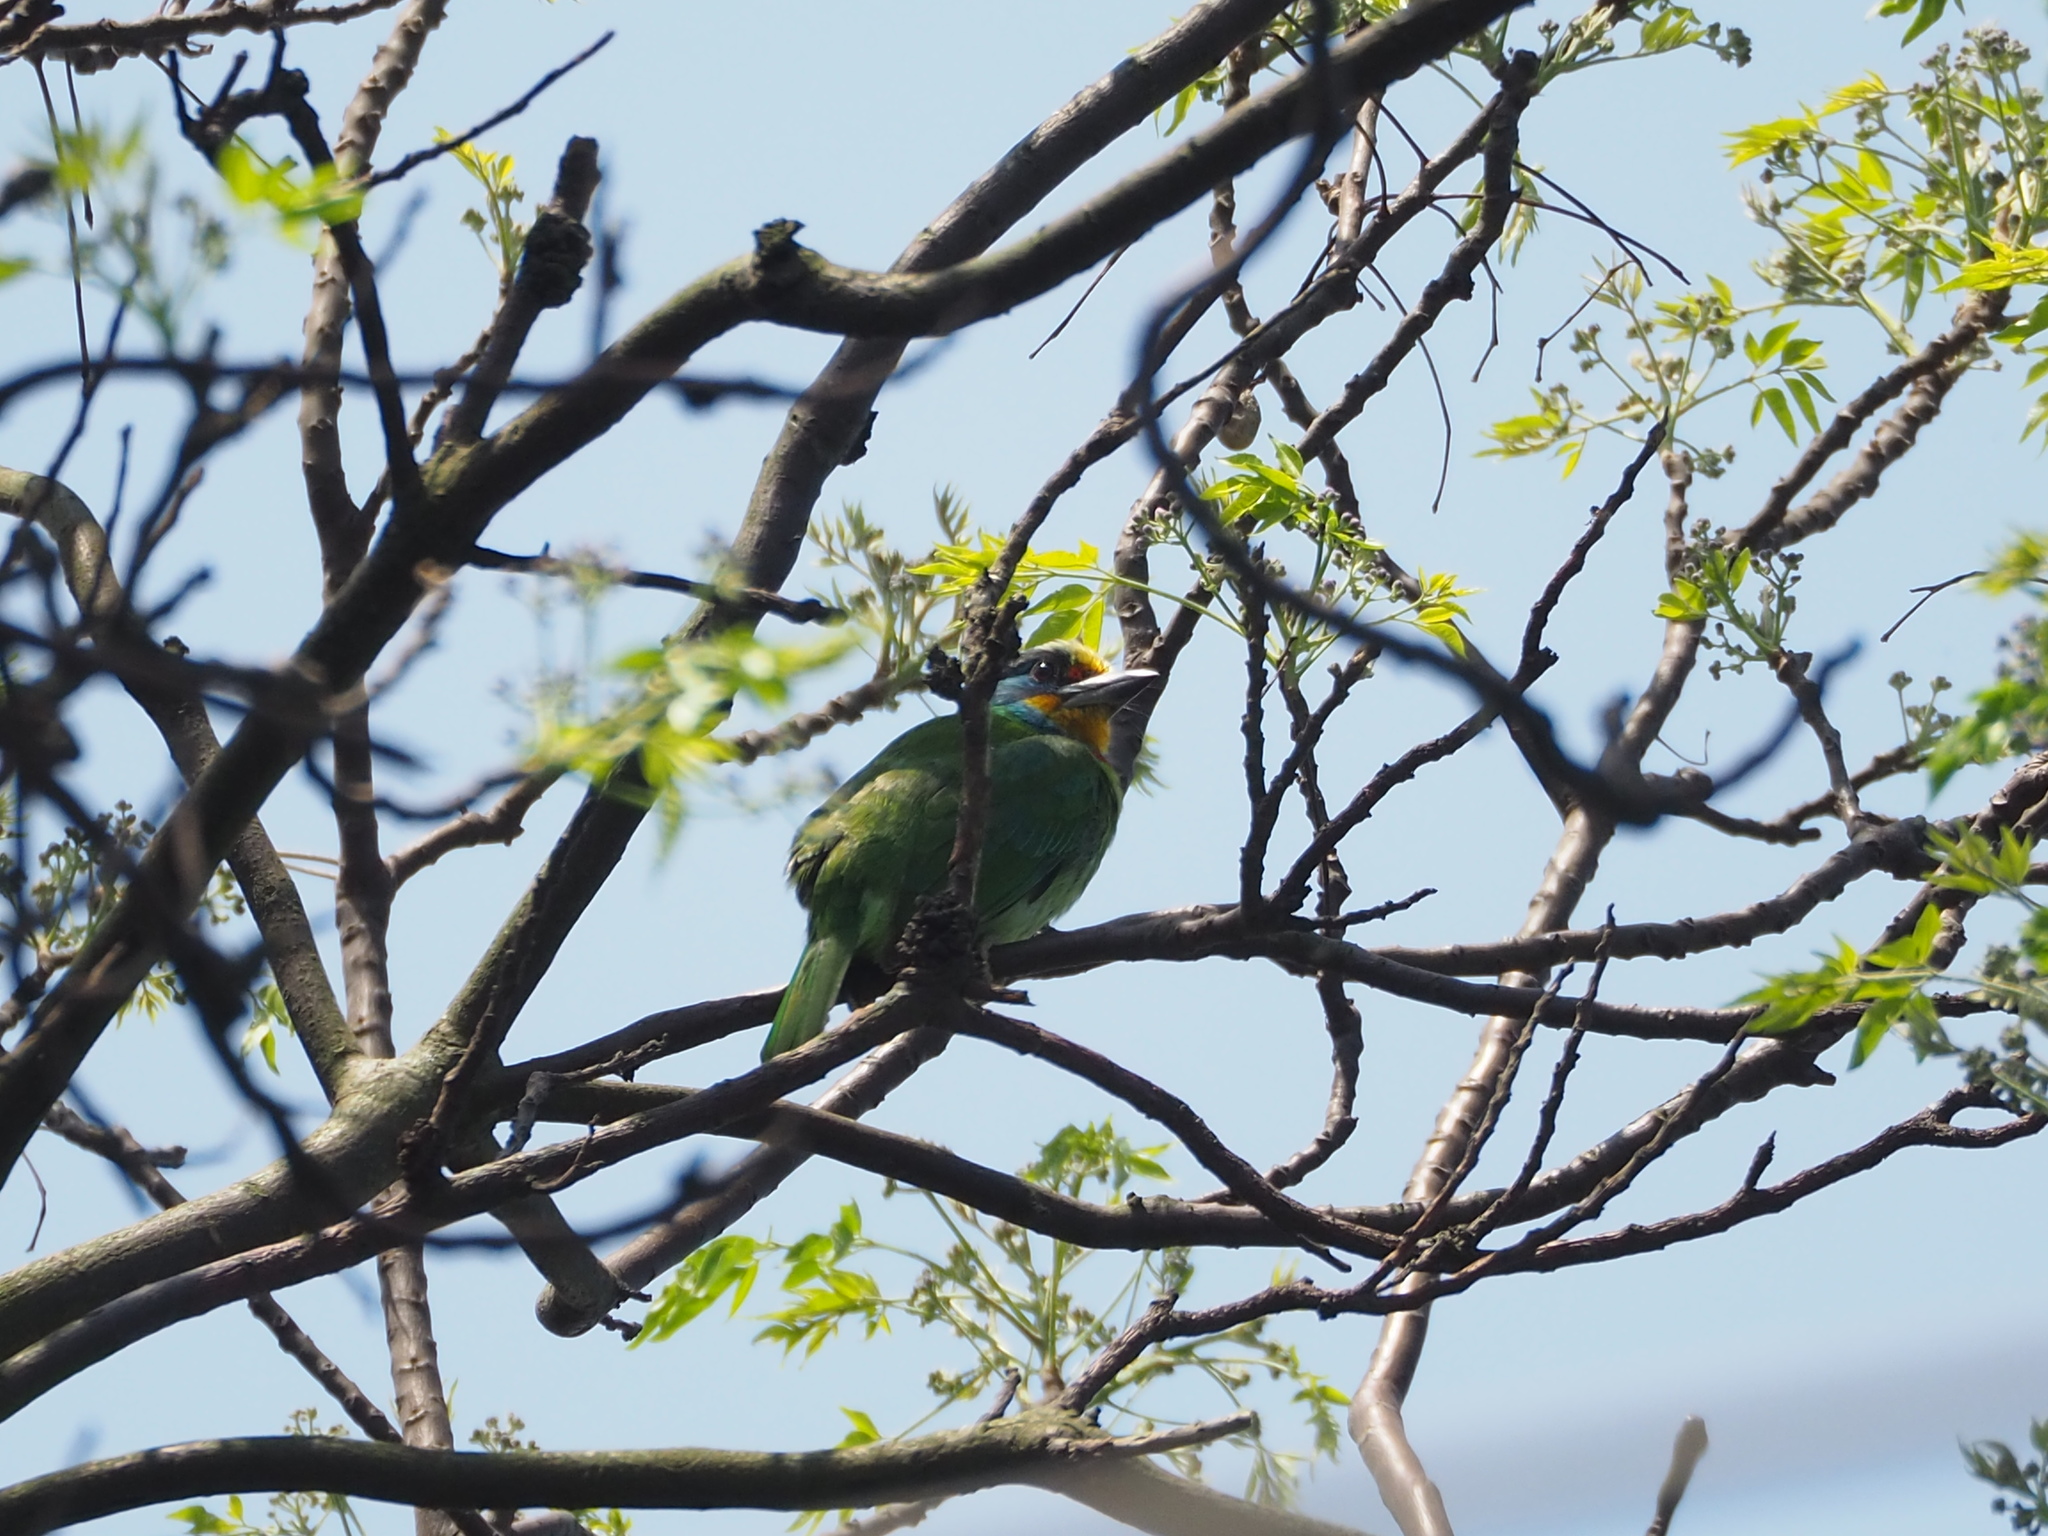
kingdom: Animalia
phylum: Chordata
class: Aves
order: Piciformes
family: Megalaimidae
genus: Psilopogon
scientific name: Psilopogon nuchalis
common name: Taiwan barbet
